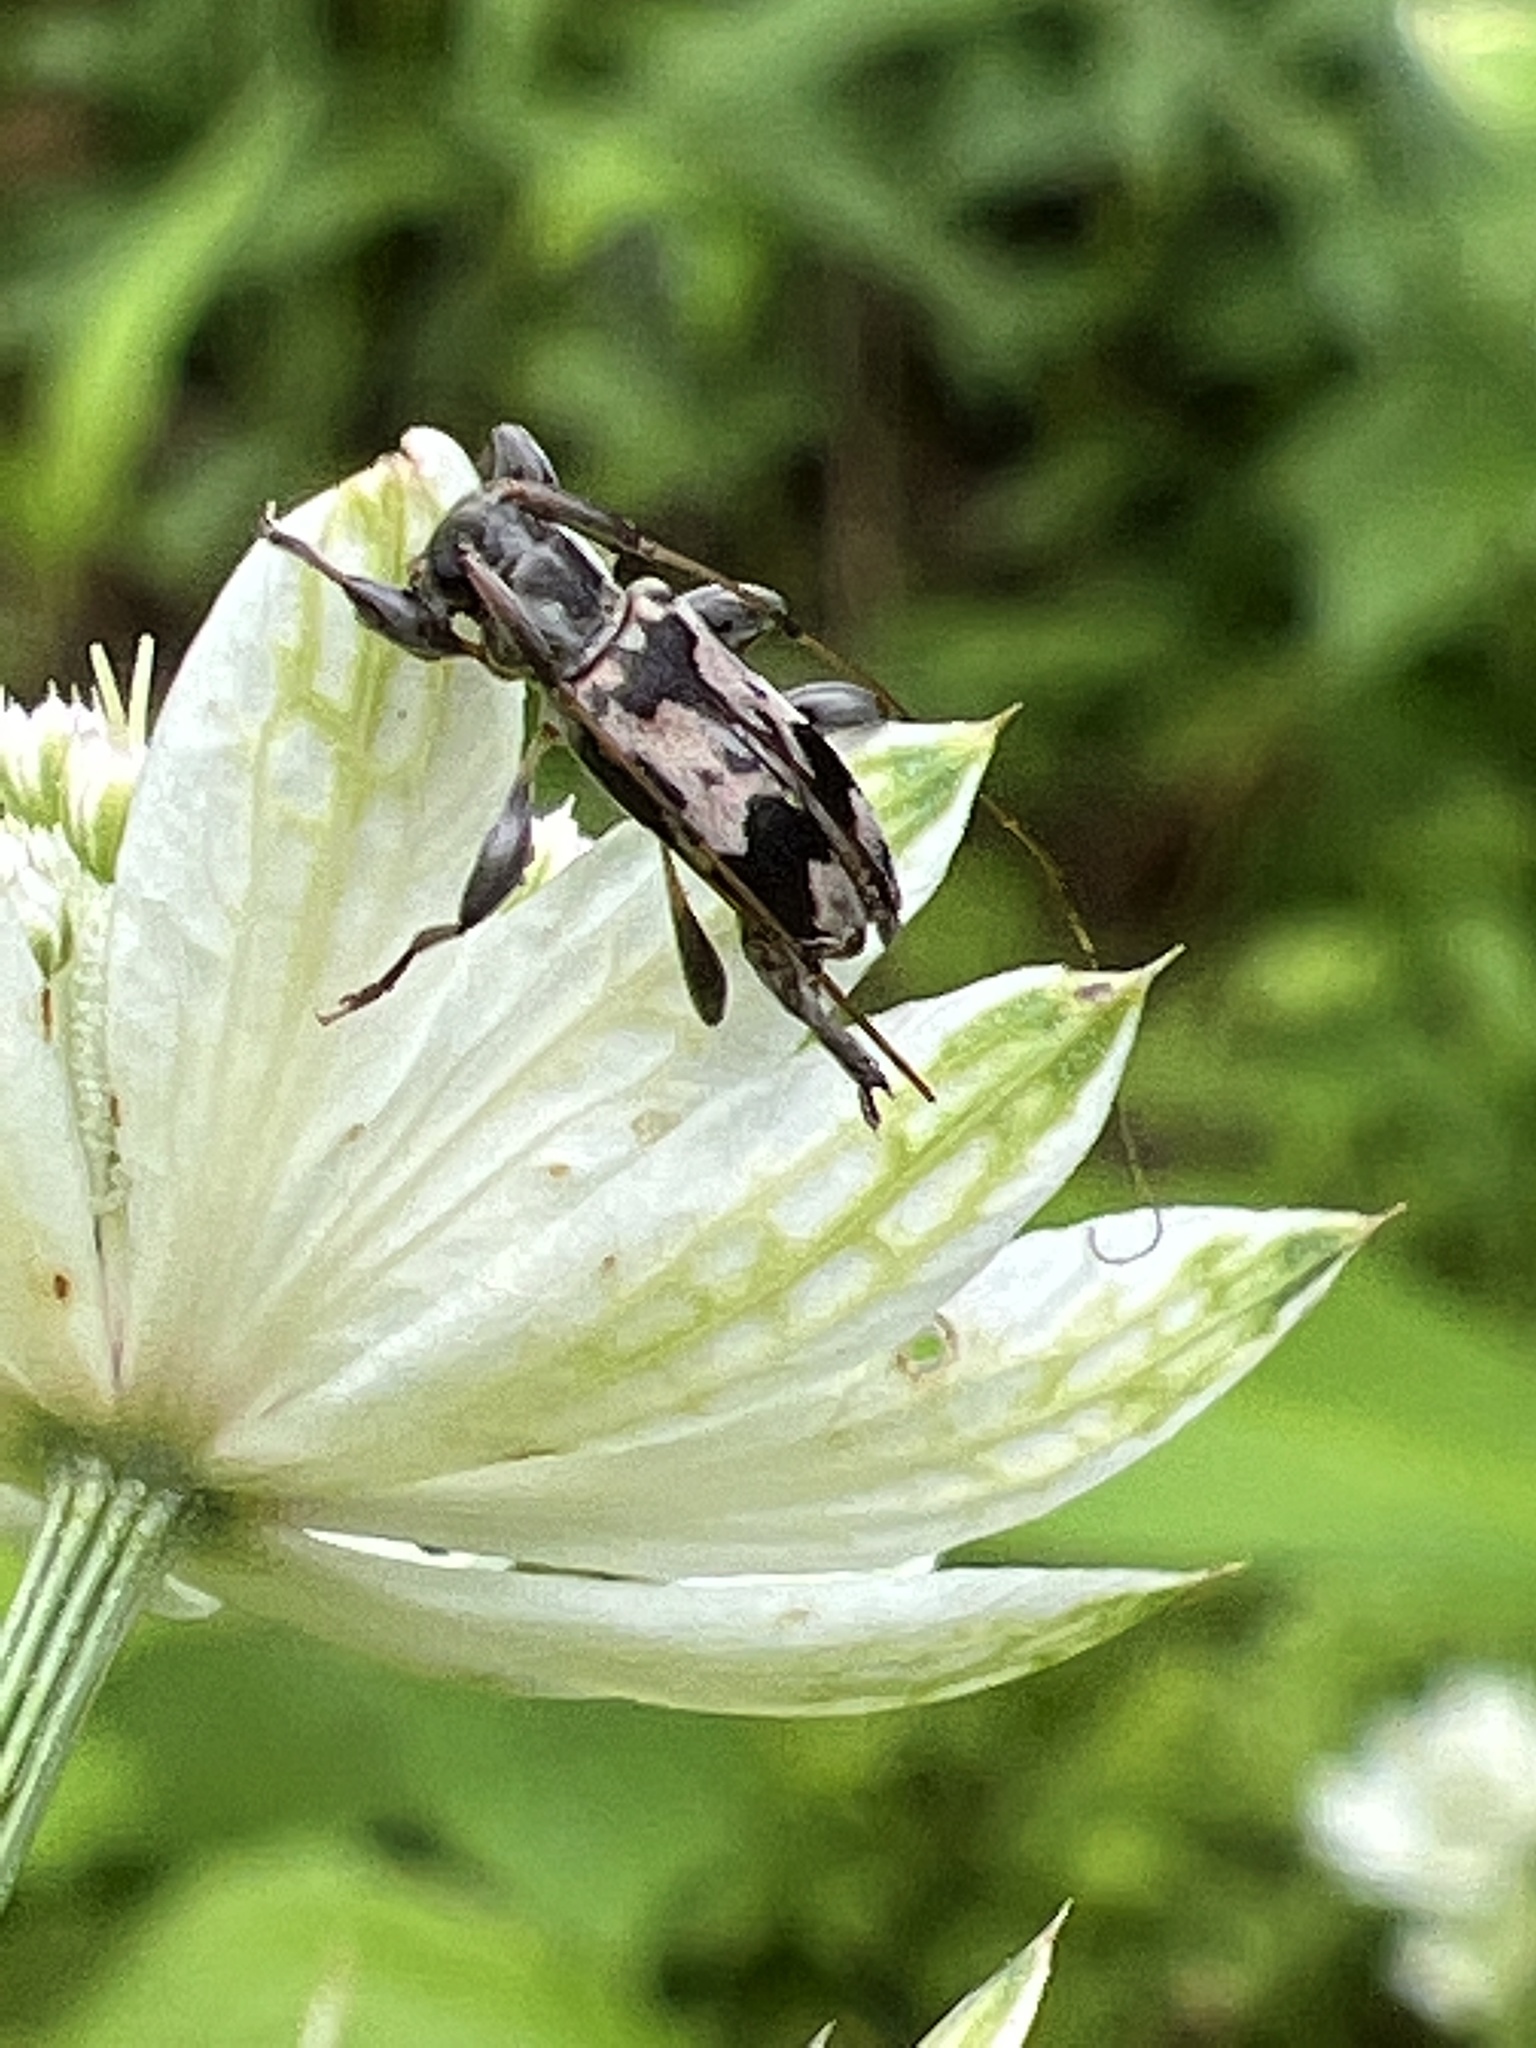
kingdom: Animalia
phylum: Arthropoda
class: Insecta
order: Coleoptera
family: Cerambycidae
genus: Urgleptes
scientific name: Urgleptes querci
